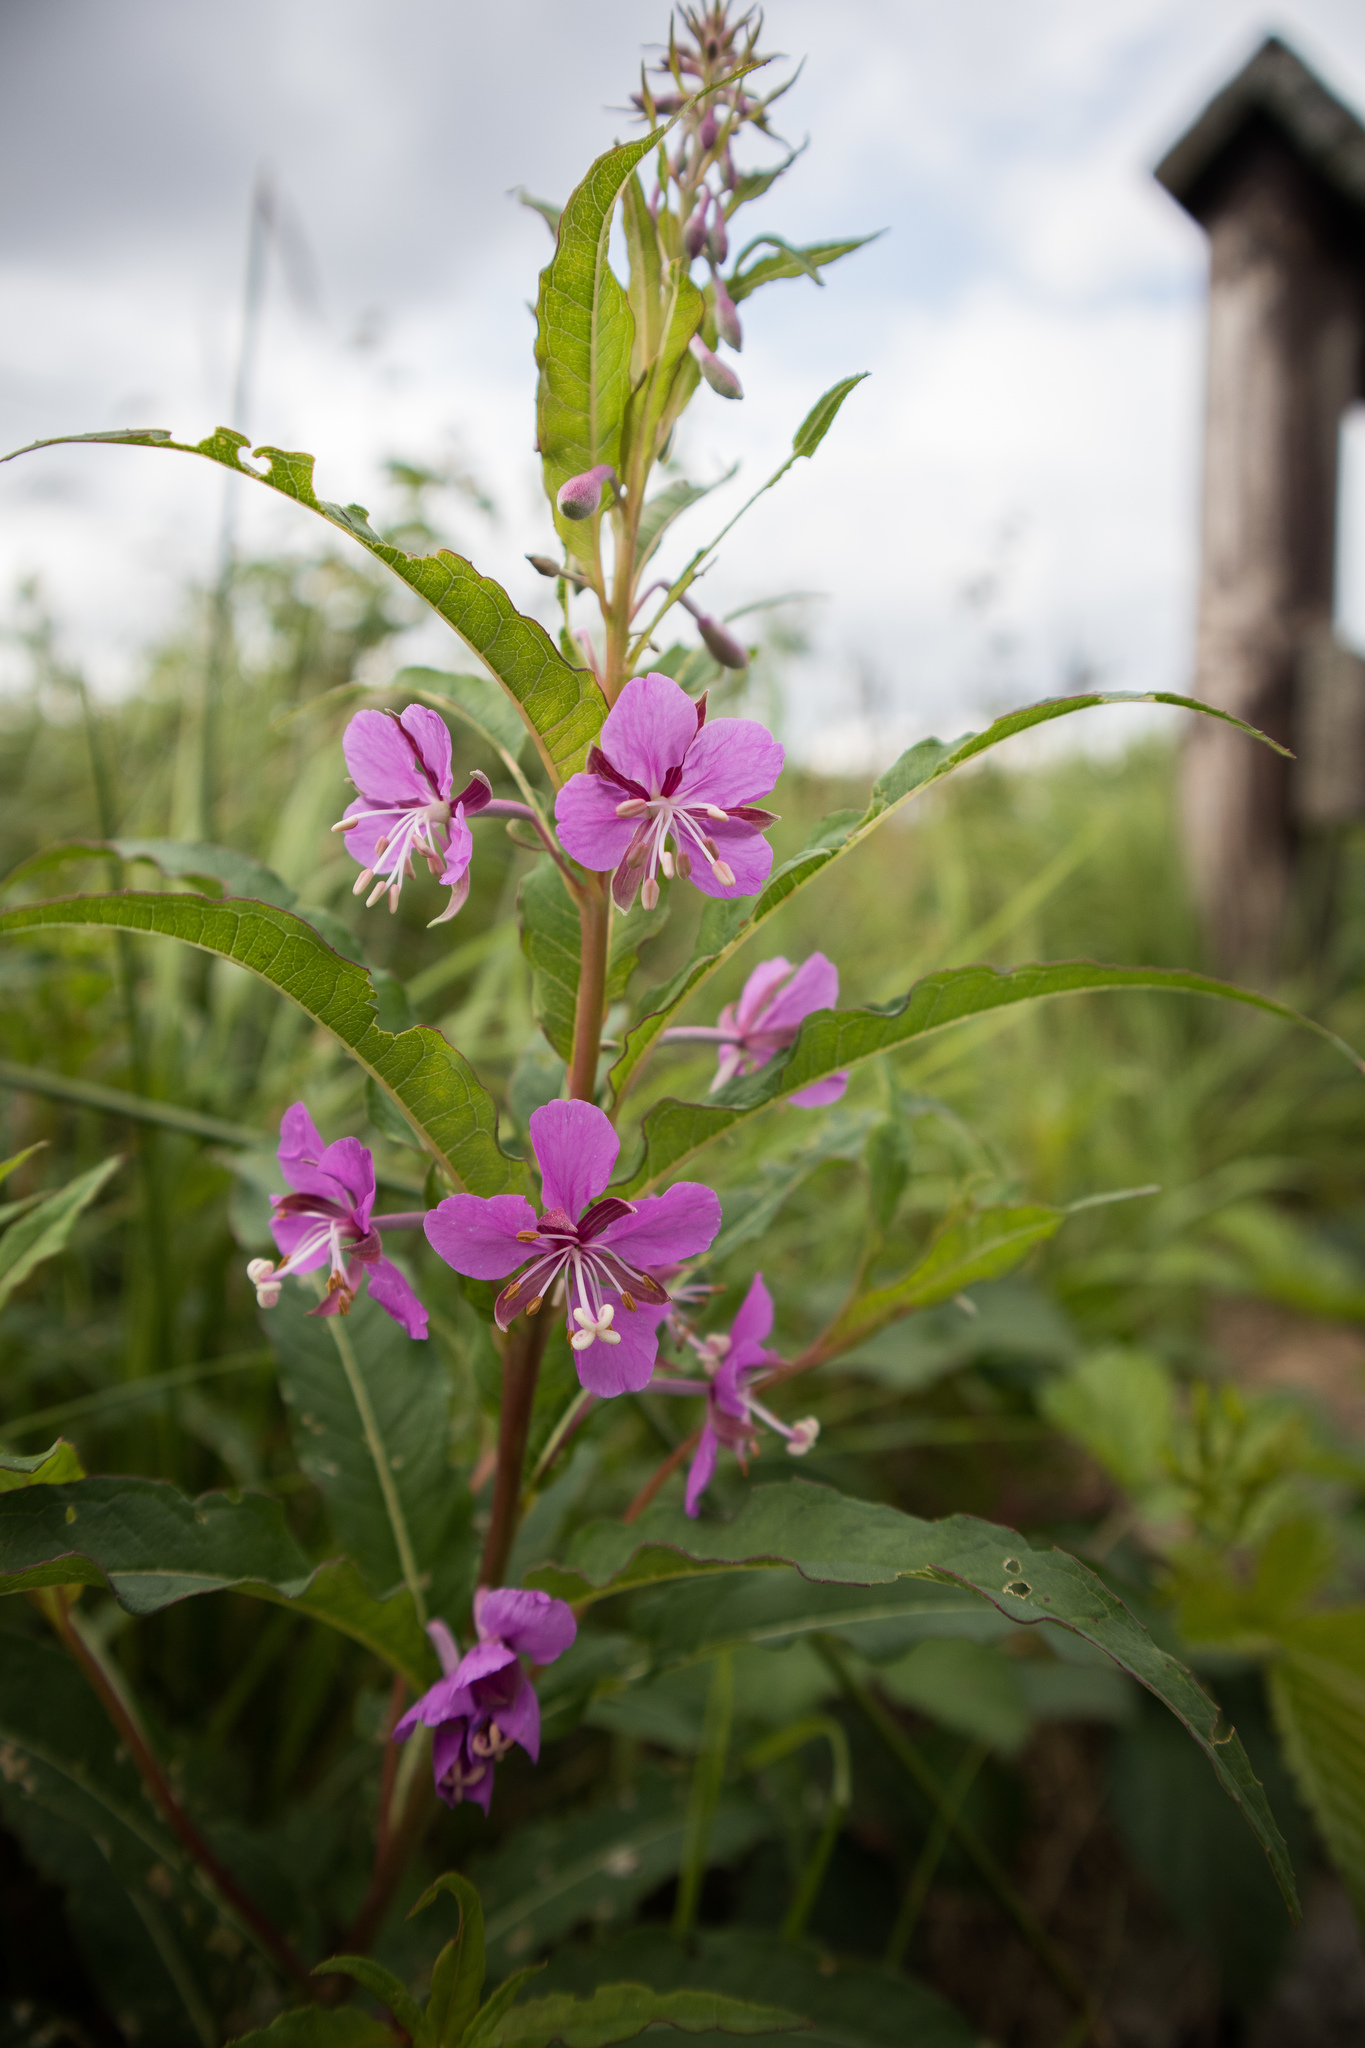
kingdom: Plantae
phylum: Tracheophyta
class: Magnoliopsida
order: Myrtales
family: Onagraceae
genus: Chamaenerion
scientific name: Chamaenerion angustifolium
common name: Fireweed
